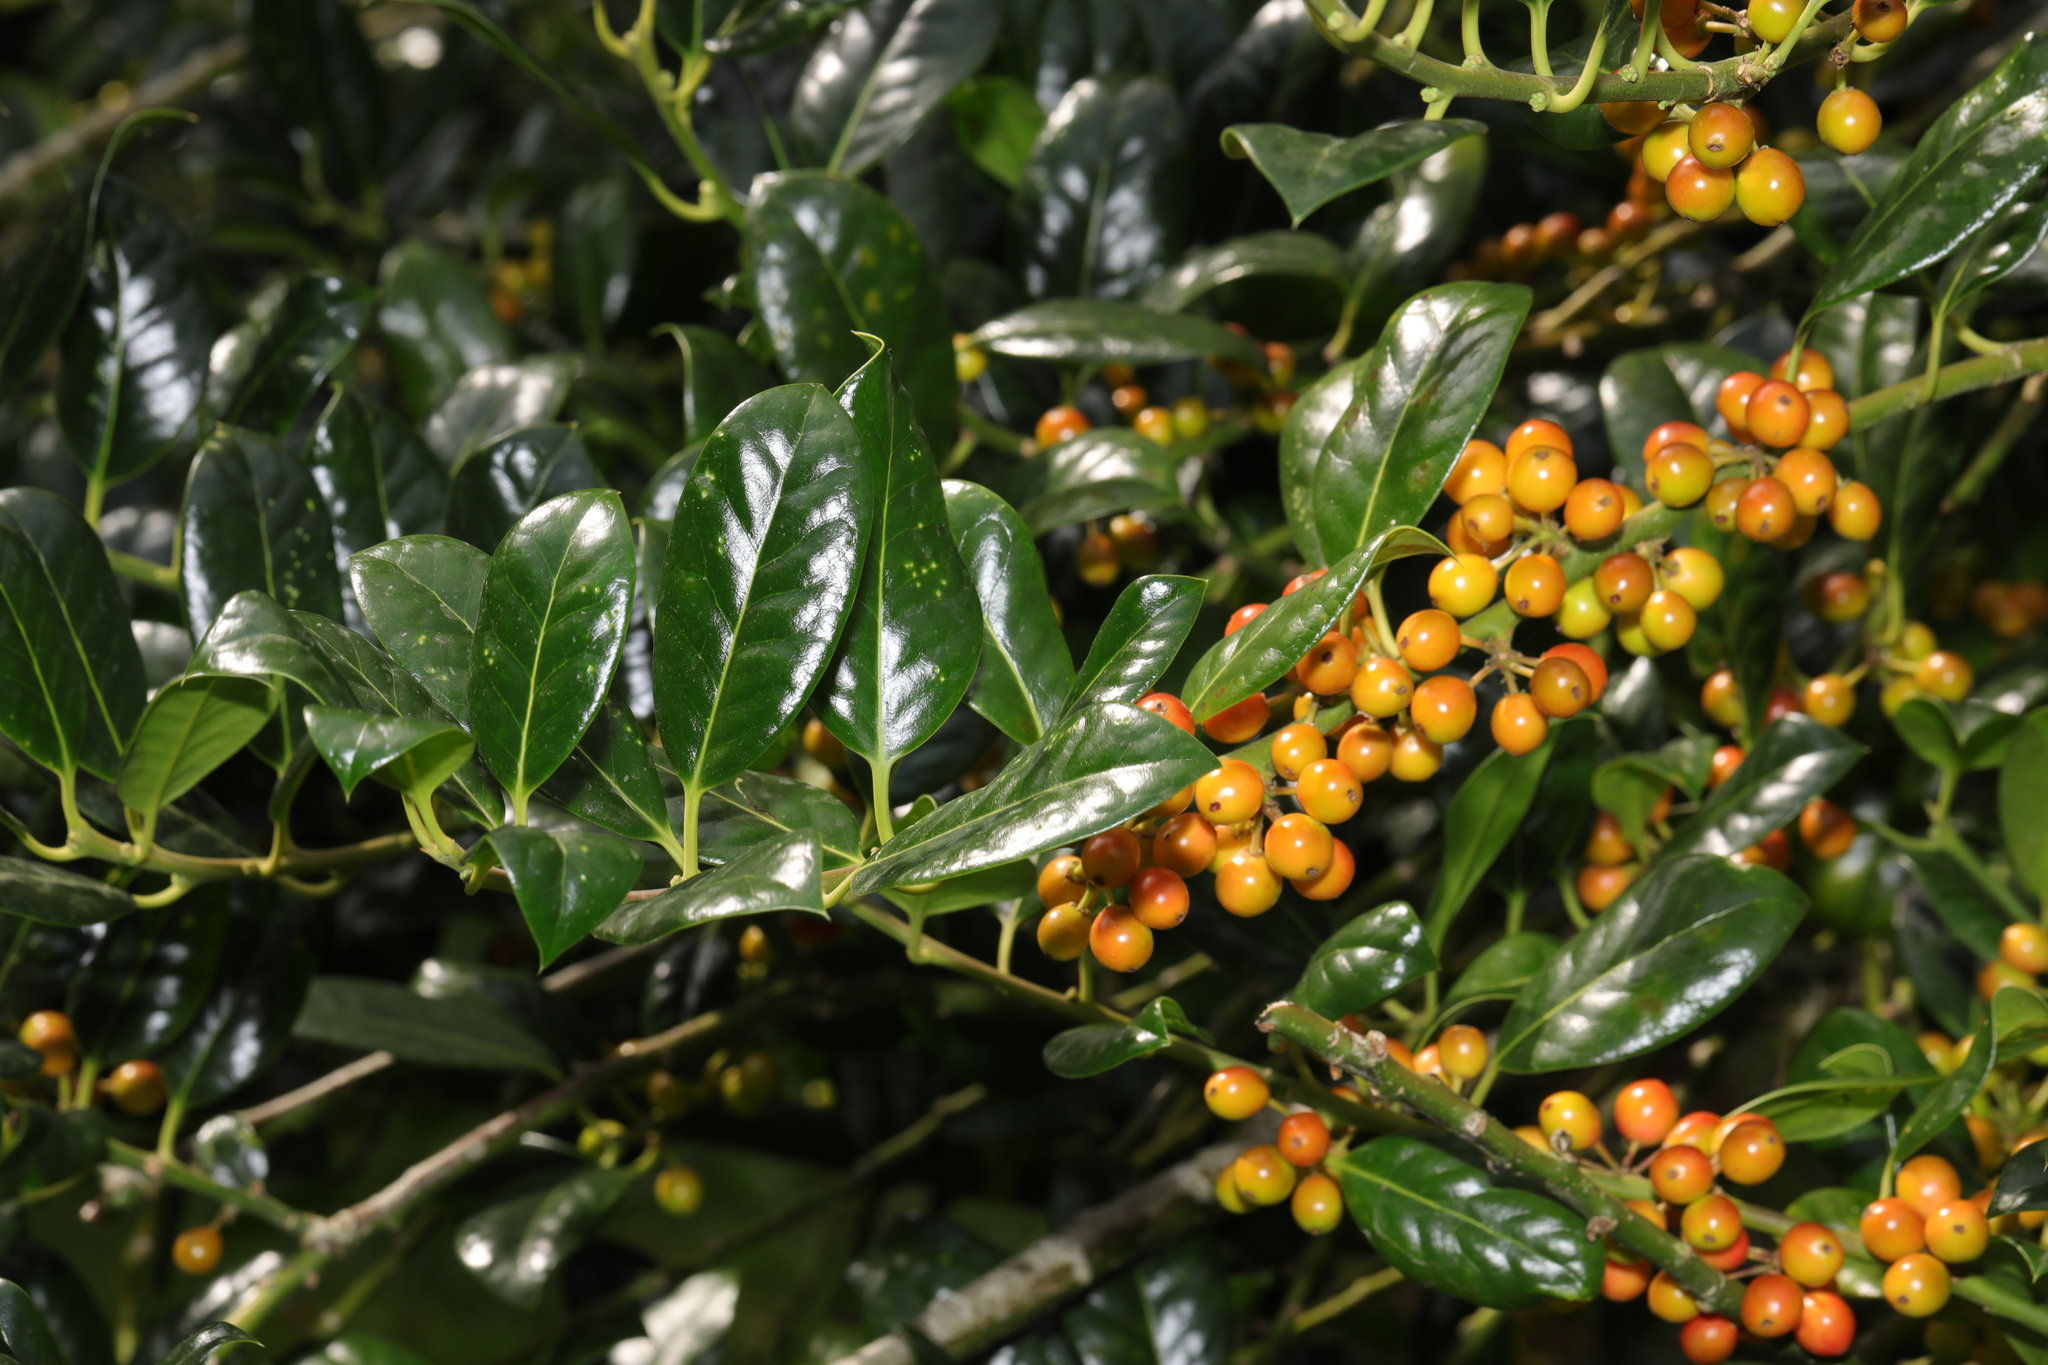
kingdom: Plantae
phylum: Tracheophyta
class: Magnoliopsida
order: Aquifoliales
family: Aquifoliaceae
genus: Ilex
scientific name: Ilex aquifolium
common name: English holly
